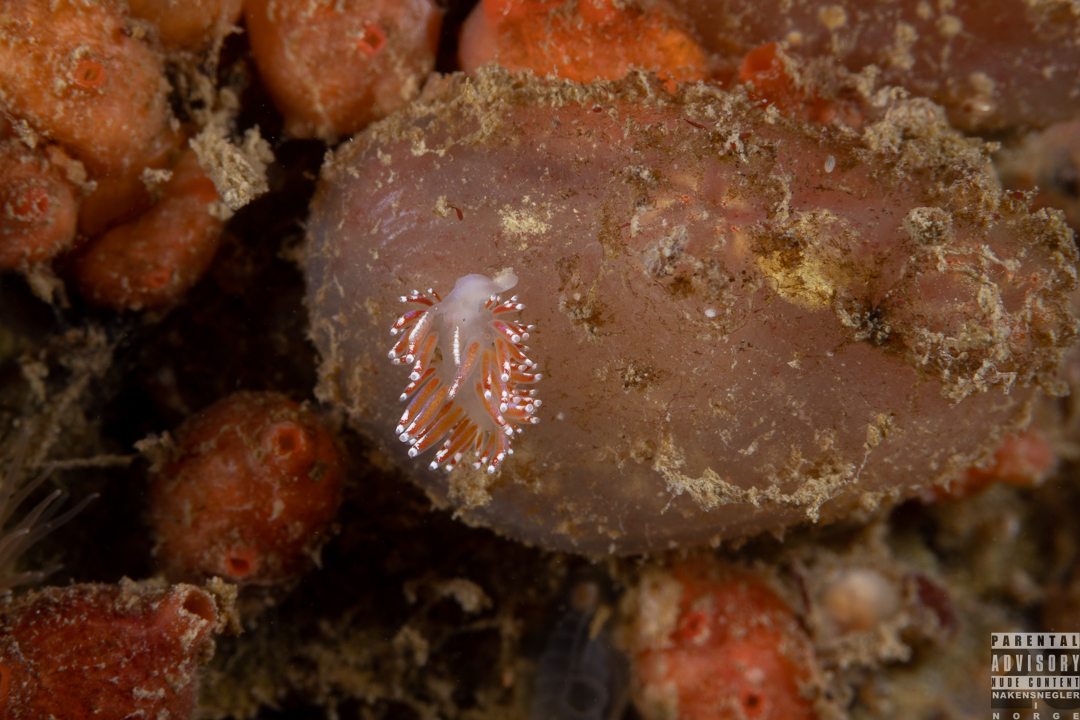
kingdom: Animalia
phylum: Mollusca
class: Gastropoda
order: Nudibranchia
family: Facelinidae
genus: Facelina
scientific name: Facelina auriculata
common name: Slender facelina
